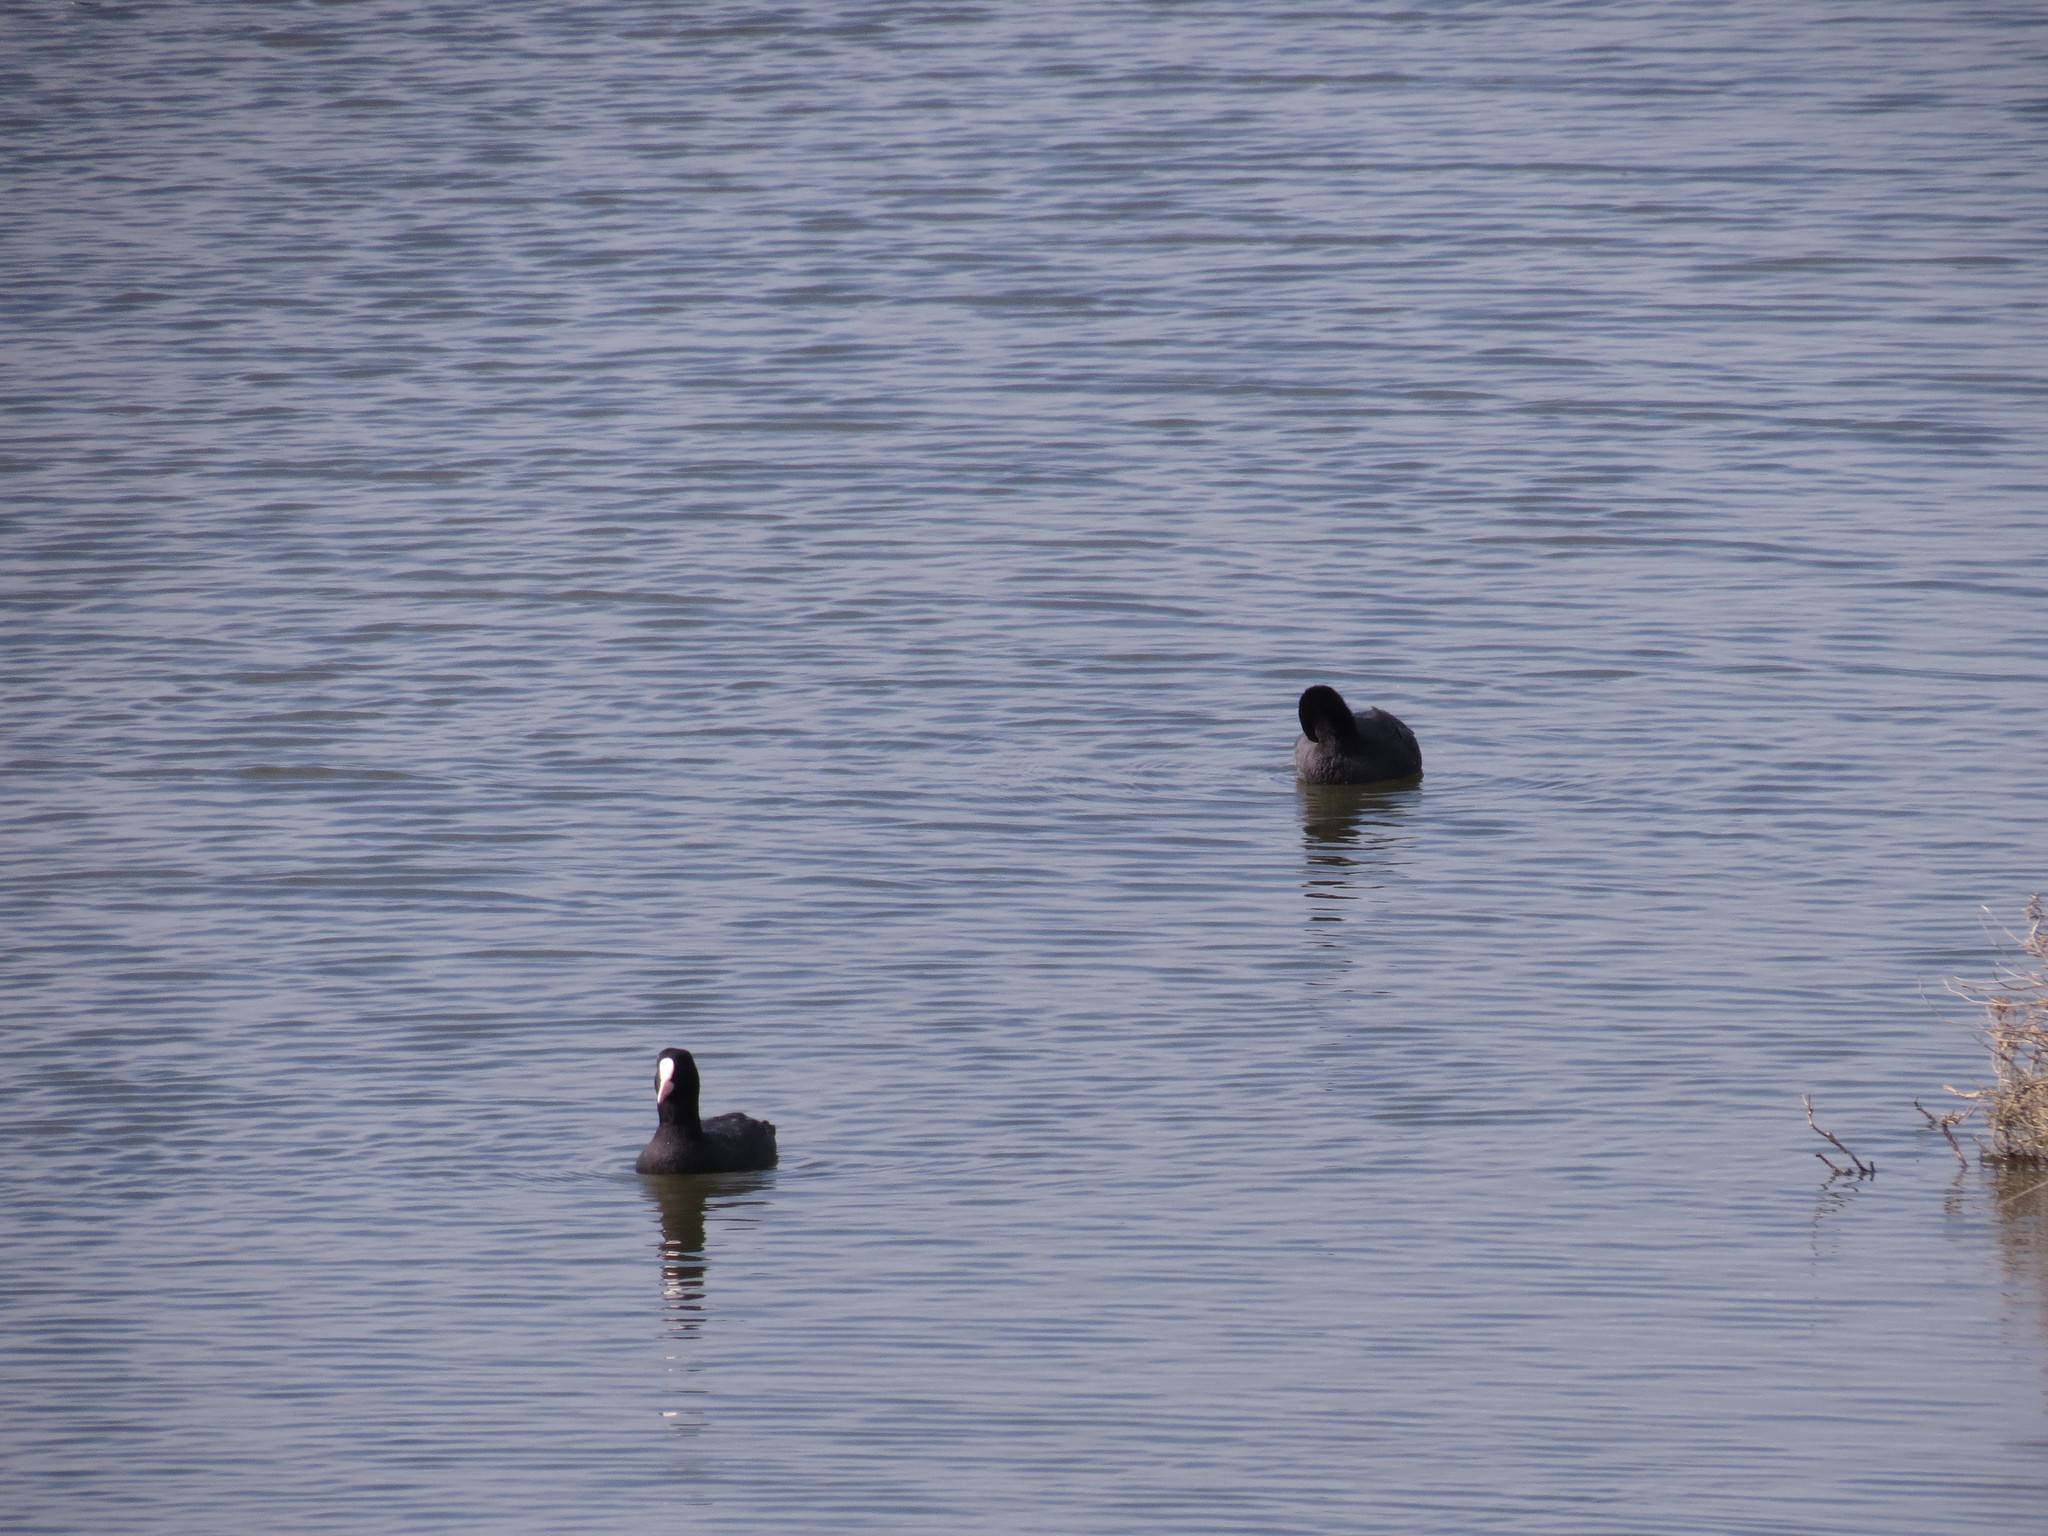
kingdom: Animalia
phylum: Chordata
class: Aves
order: Gruiformes
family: Rallidae
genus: Fulica
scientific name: Fulica atra
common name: Eurasian coot
